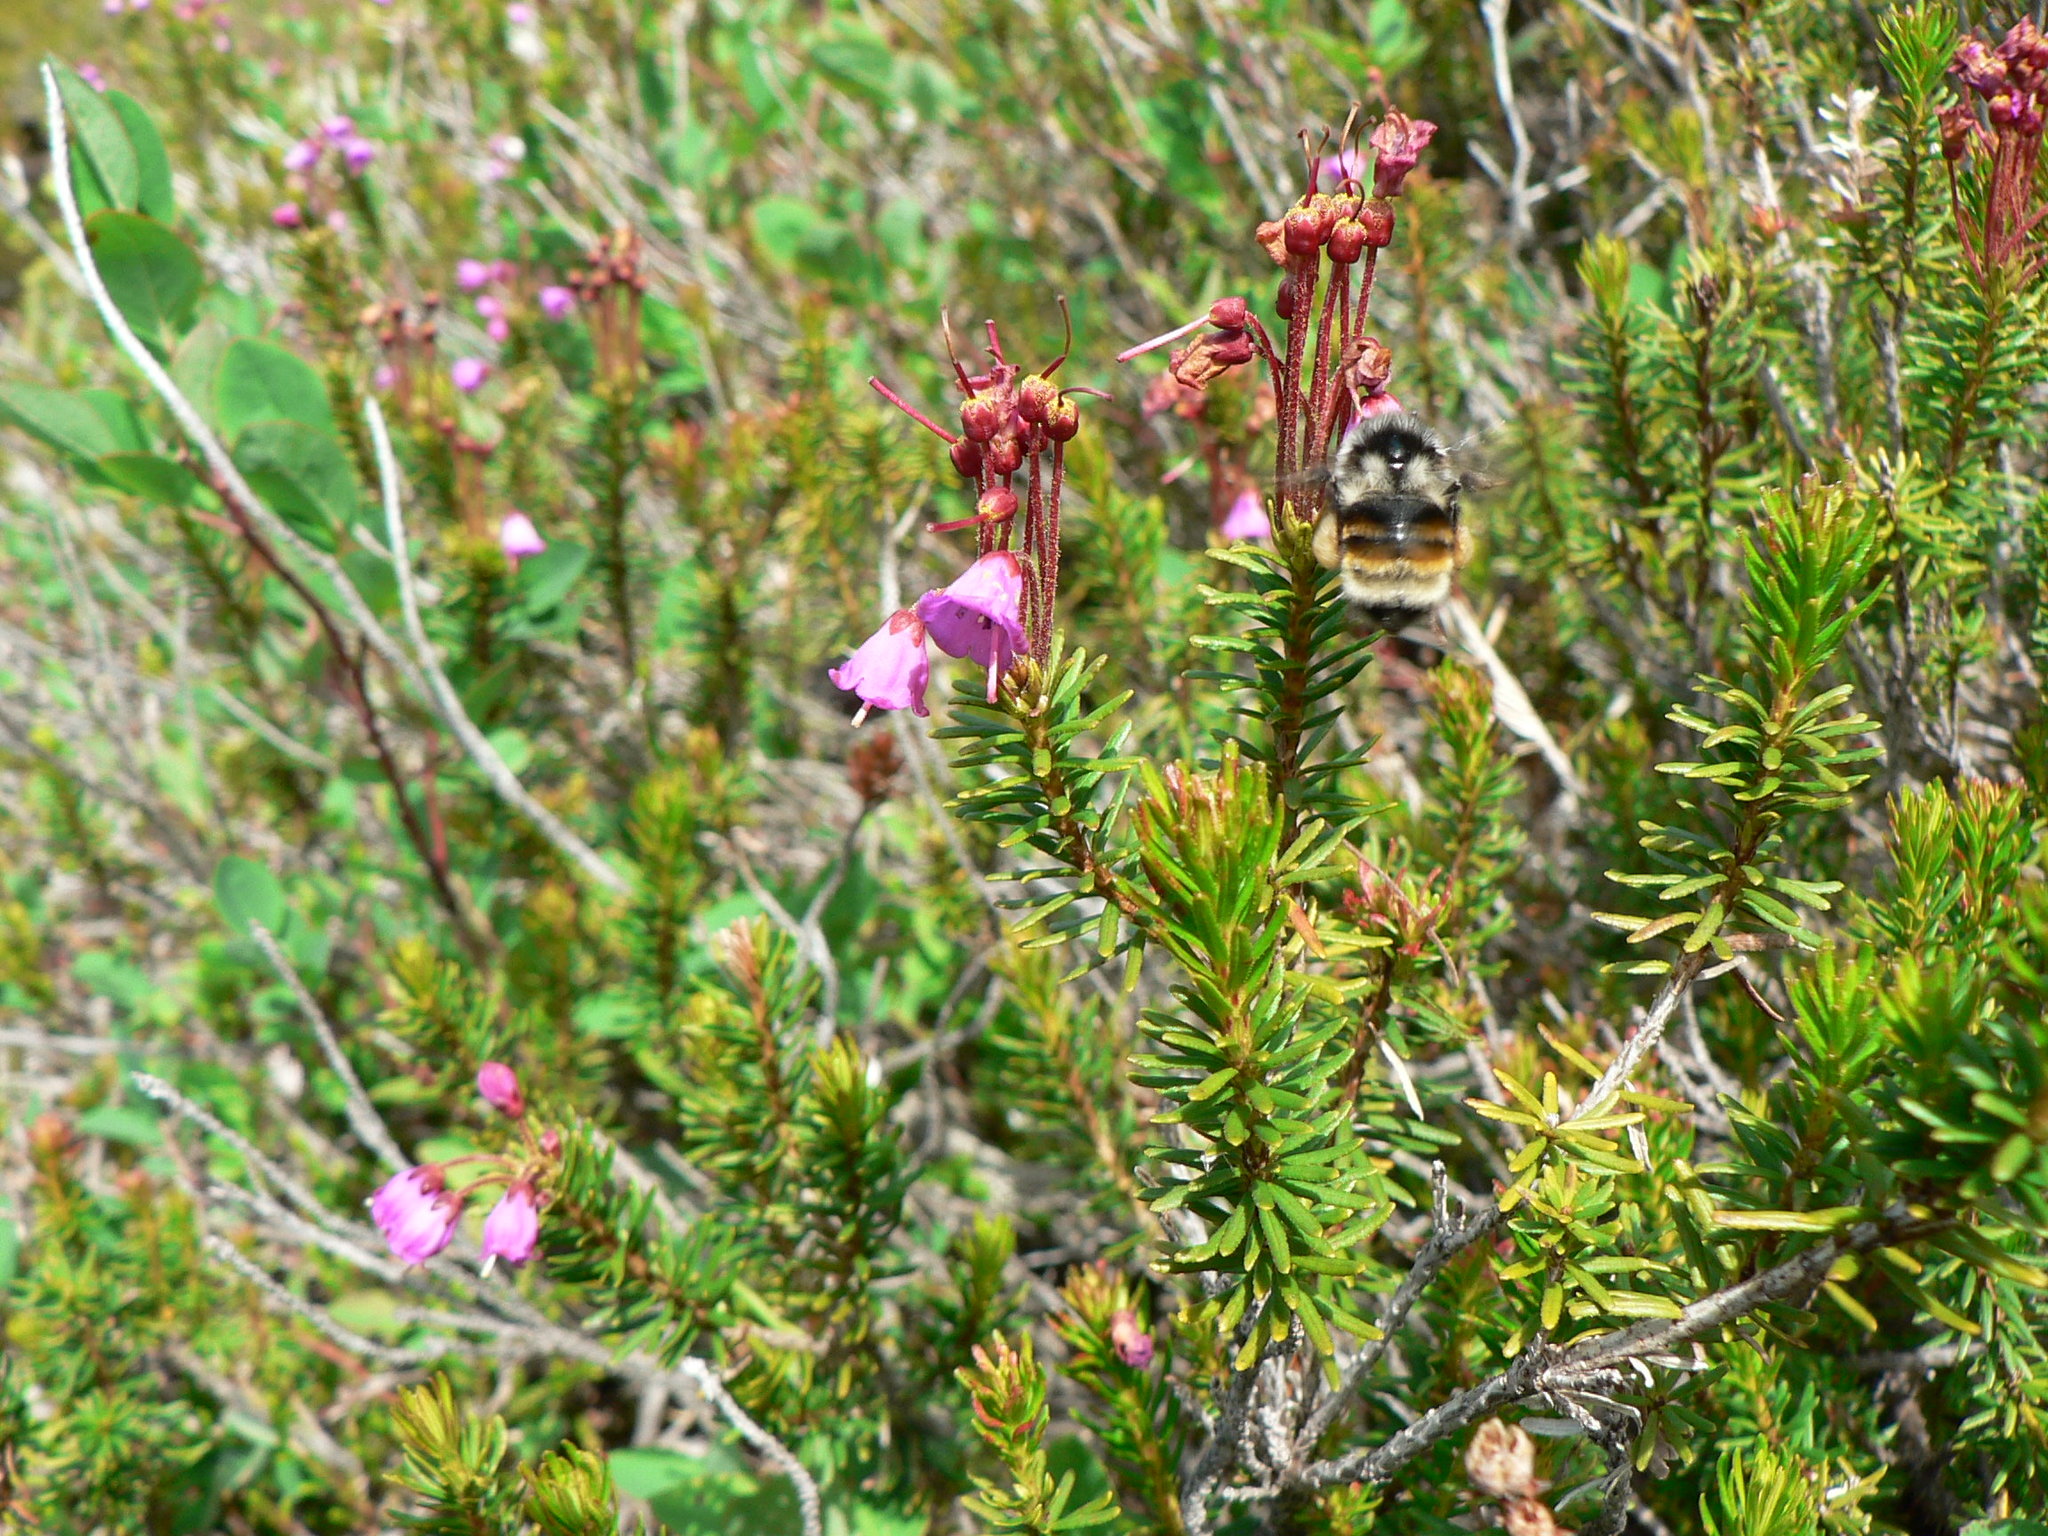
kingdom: Animalia
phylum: Arthropoda
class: Insecta
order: Hymenoptera
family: Apidae
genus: Bombus
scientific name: Bombus vancouverensis
